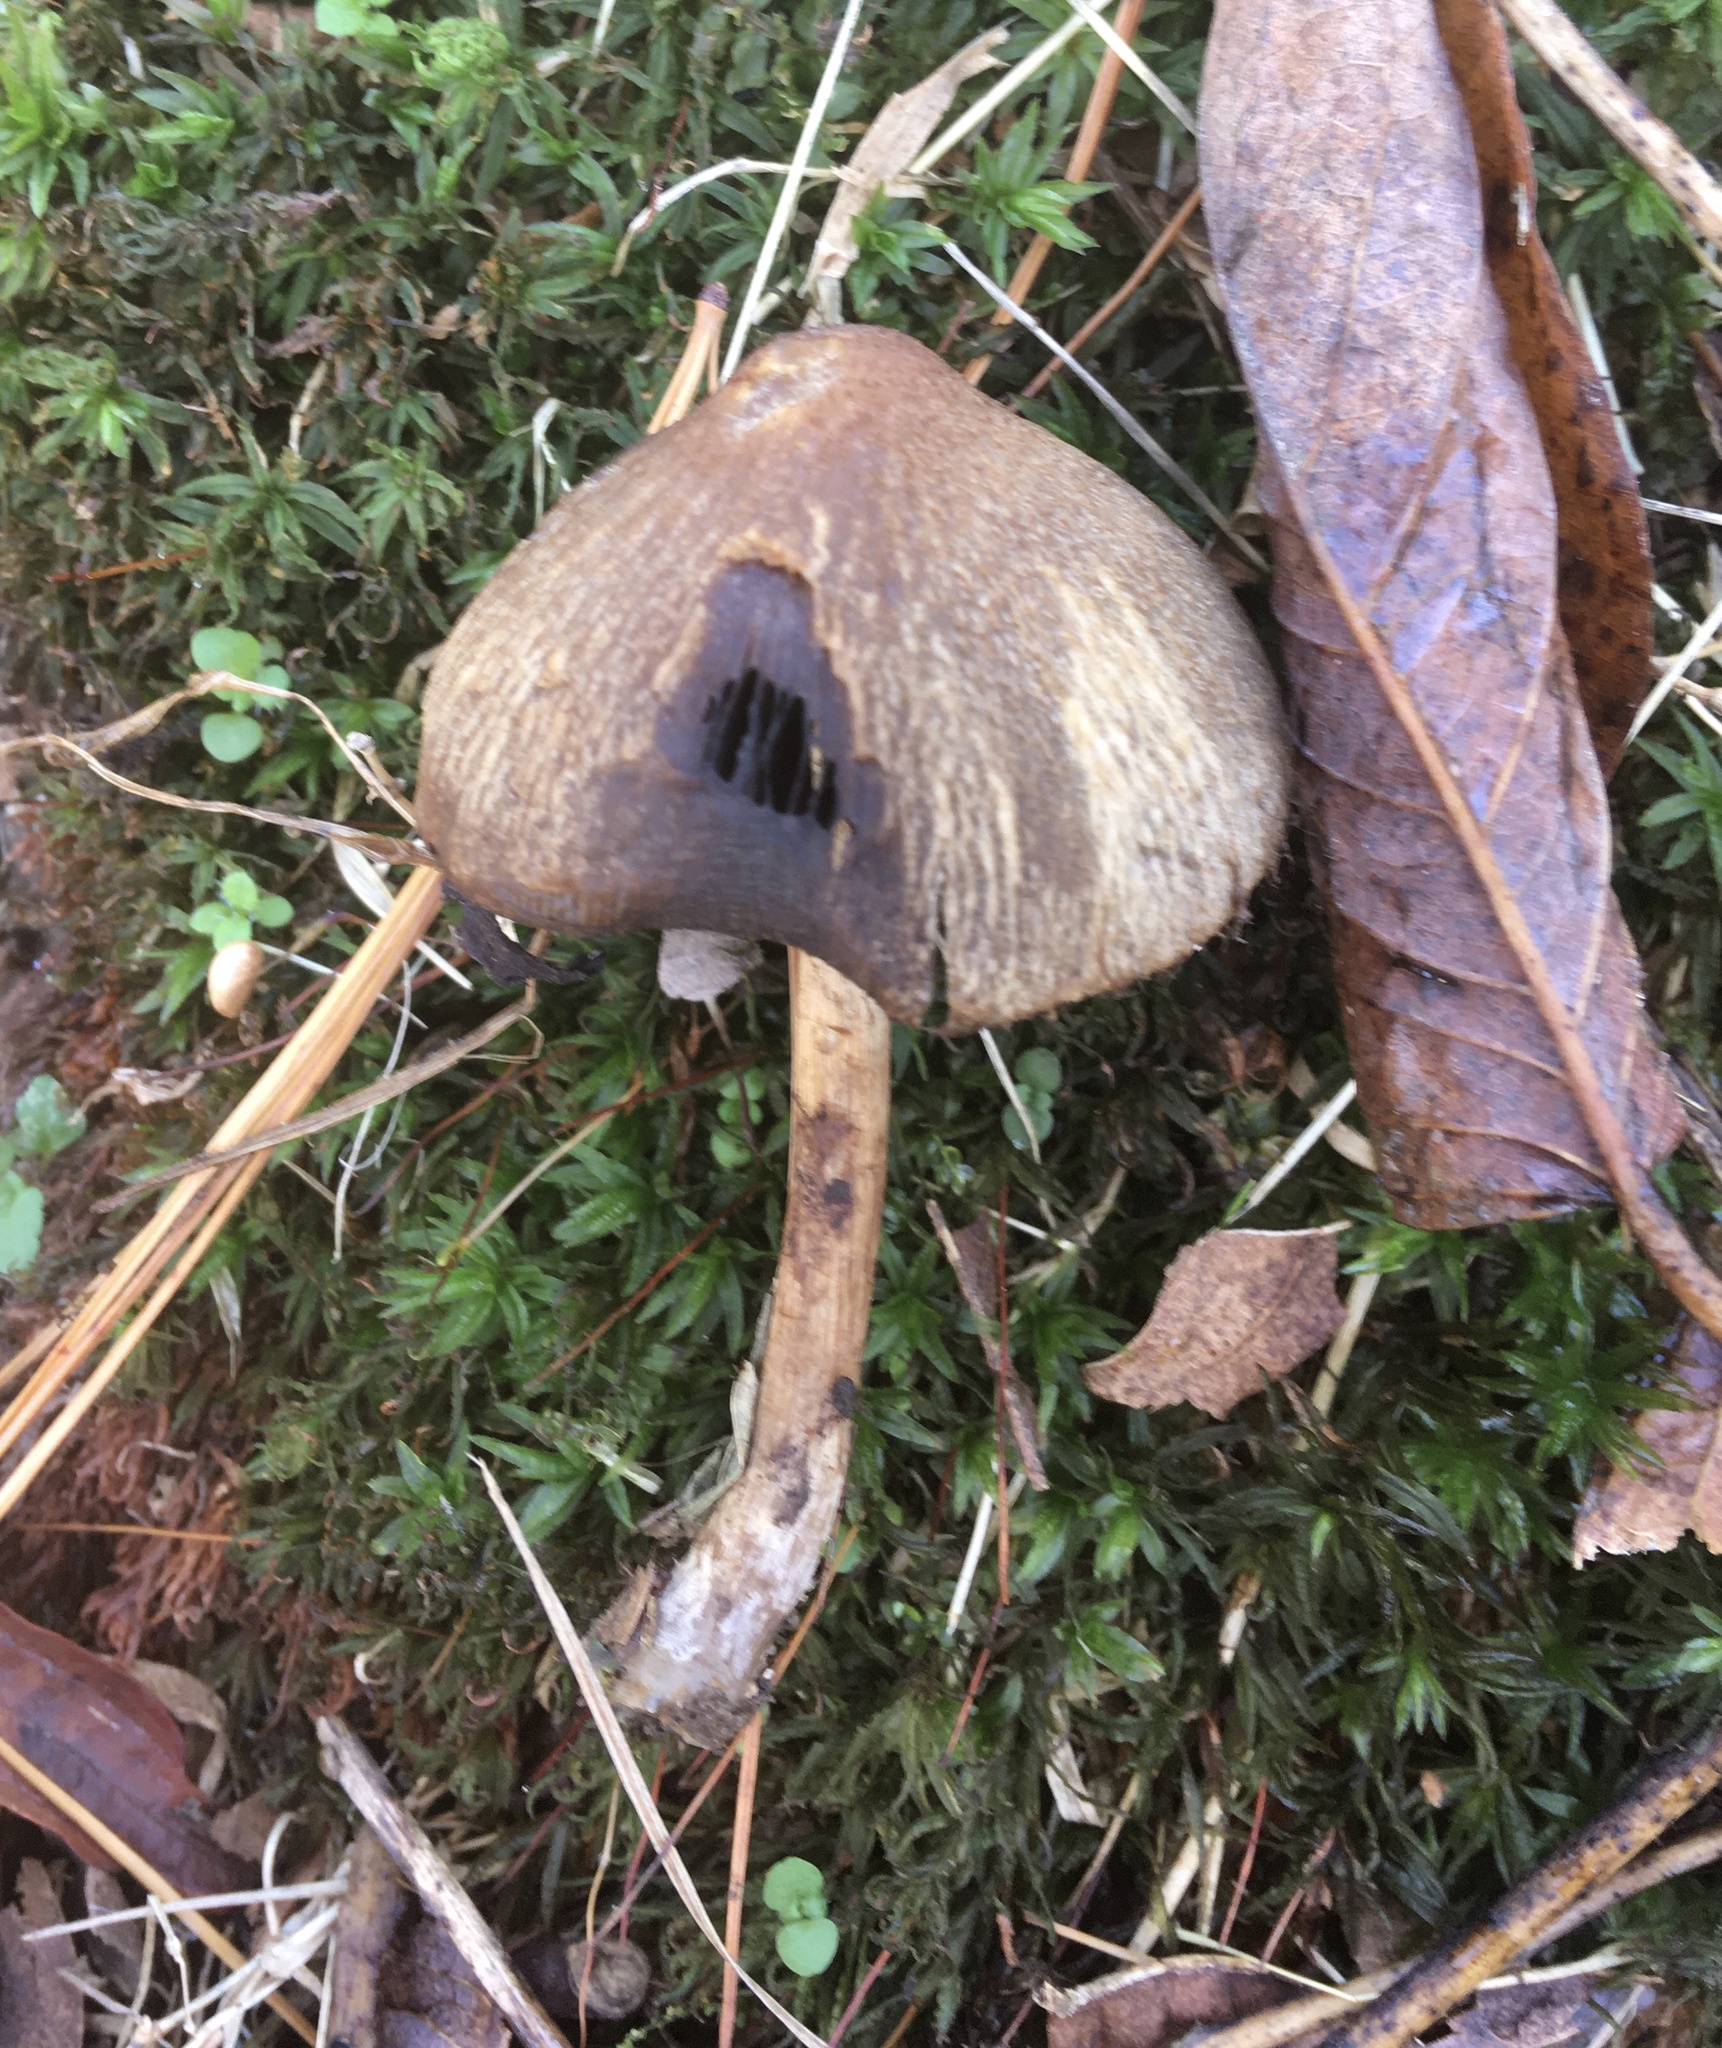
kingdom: Fungi
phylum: Basidiomycota
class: Agaricomycetes
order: Agaricales
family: Psathyrellaceae
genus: Typhrasa
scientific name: Typhrasa gossypina
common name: Wrinkled psathyrella
